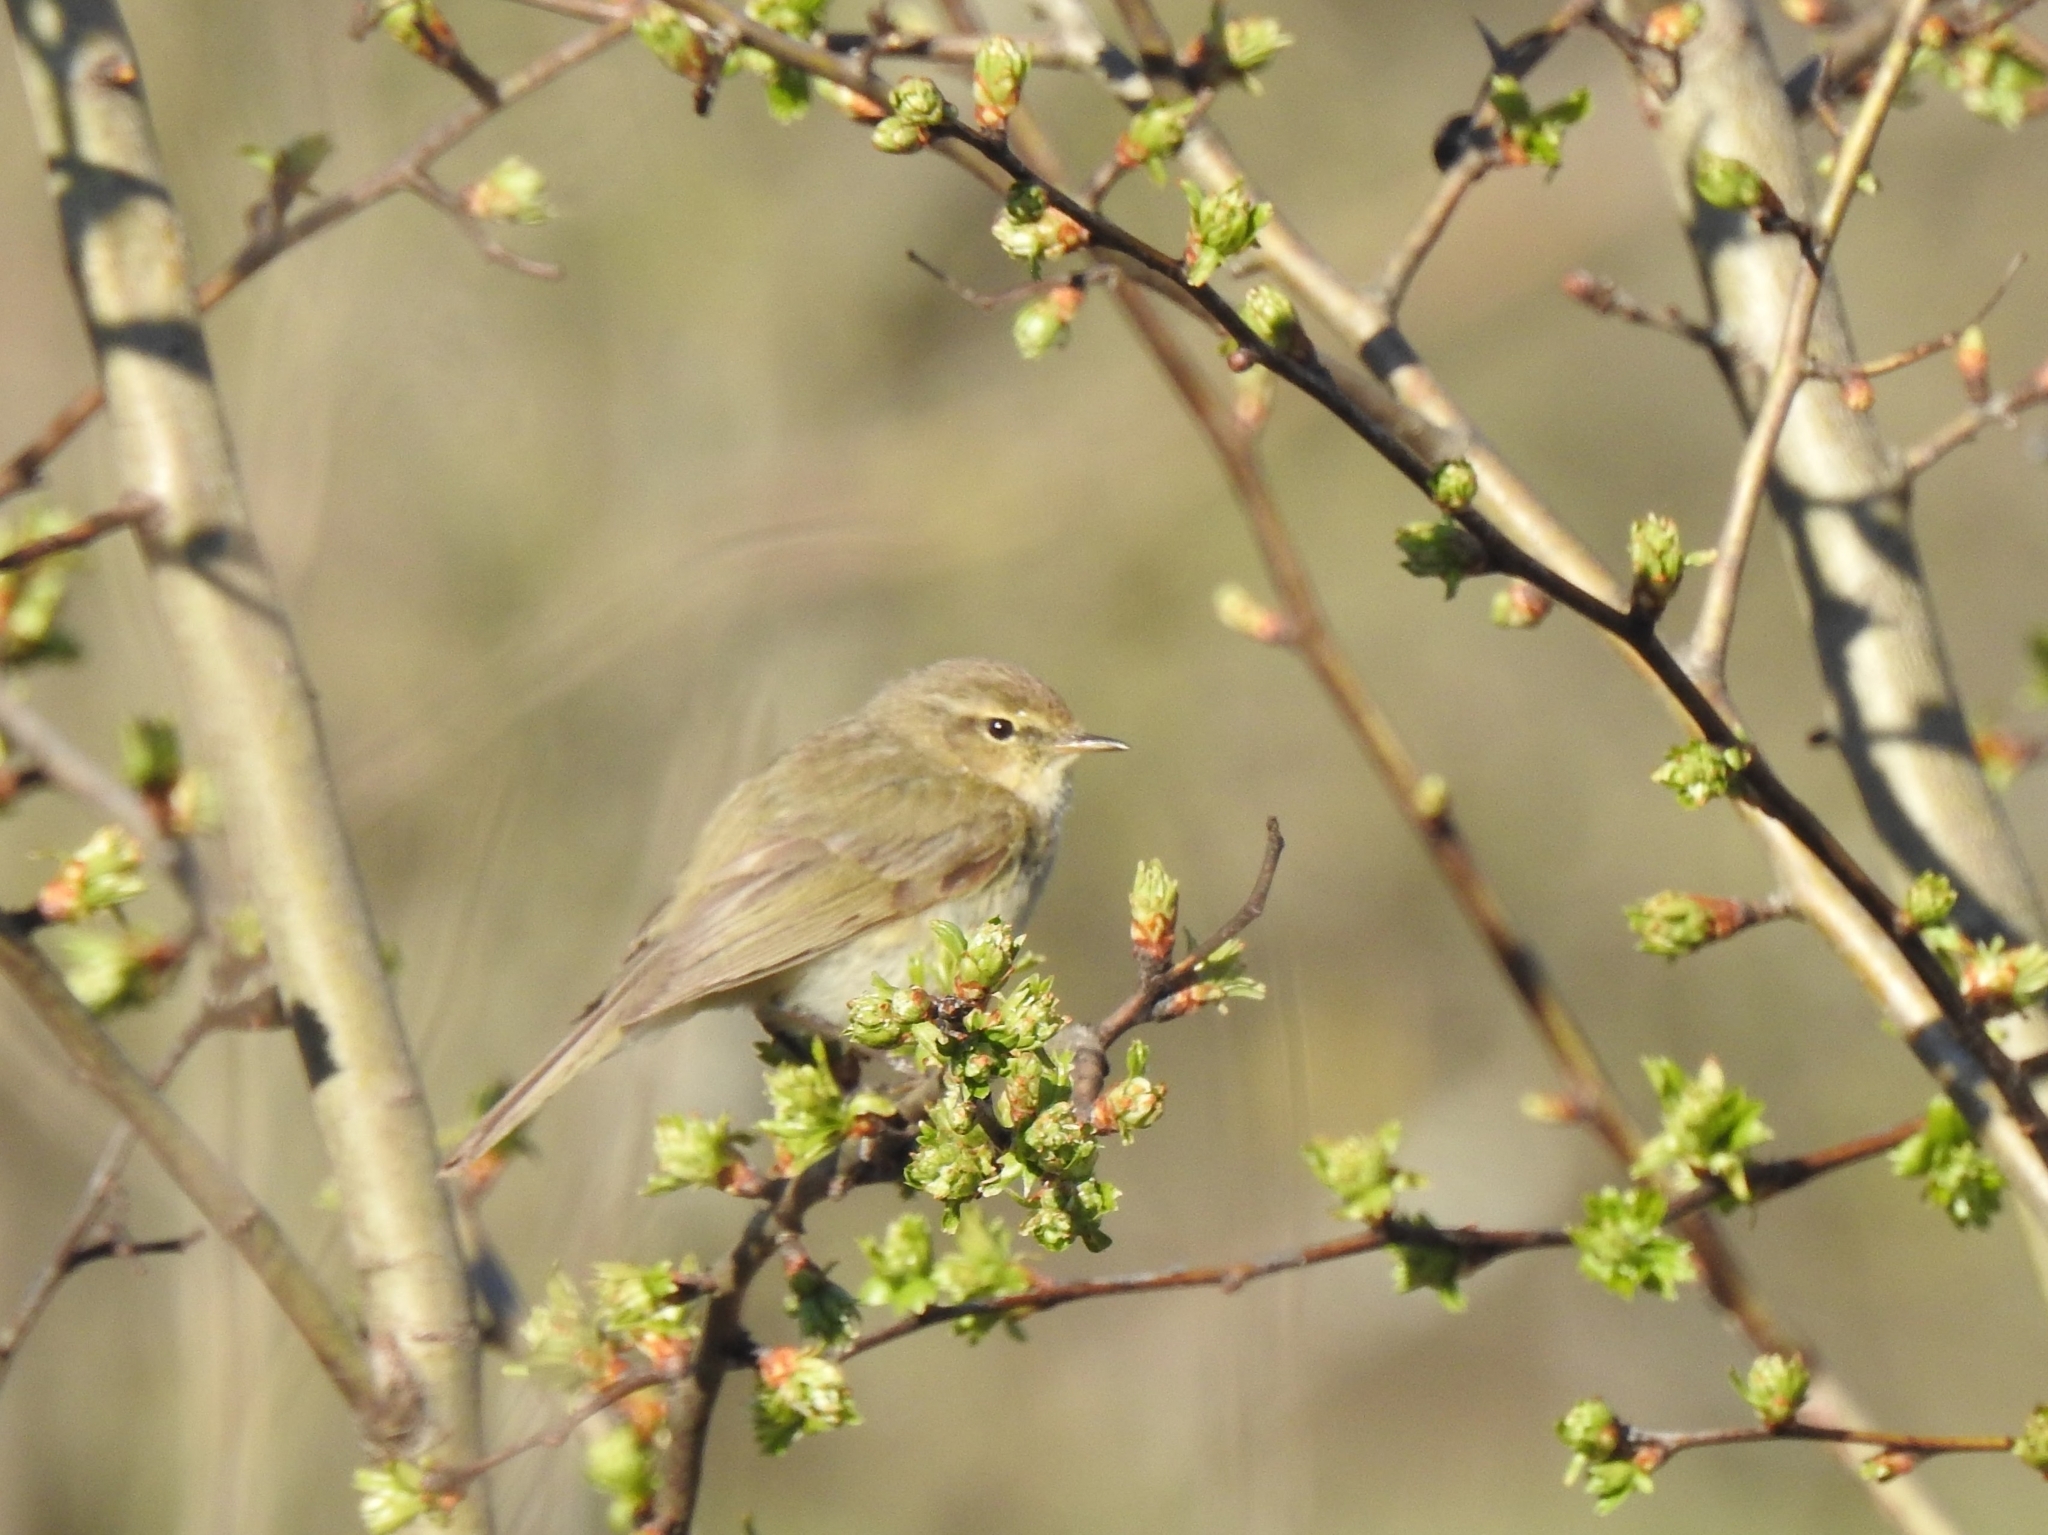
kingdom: Animalia
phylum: Chordata
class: Aves
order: Passeriformes
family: Phylloscopidae
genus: Phylloscopus
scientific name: Phylloscopus collybita
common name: Common chiffchaff
